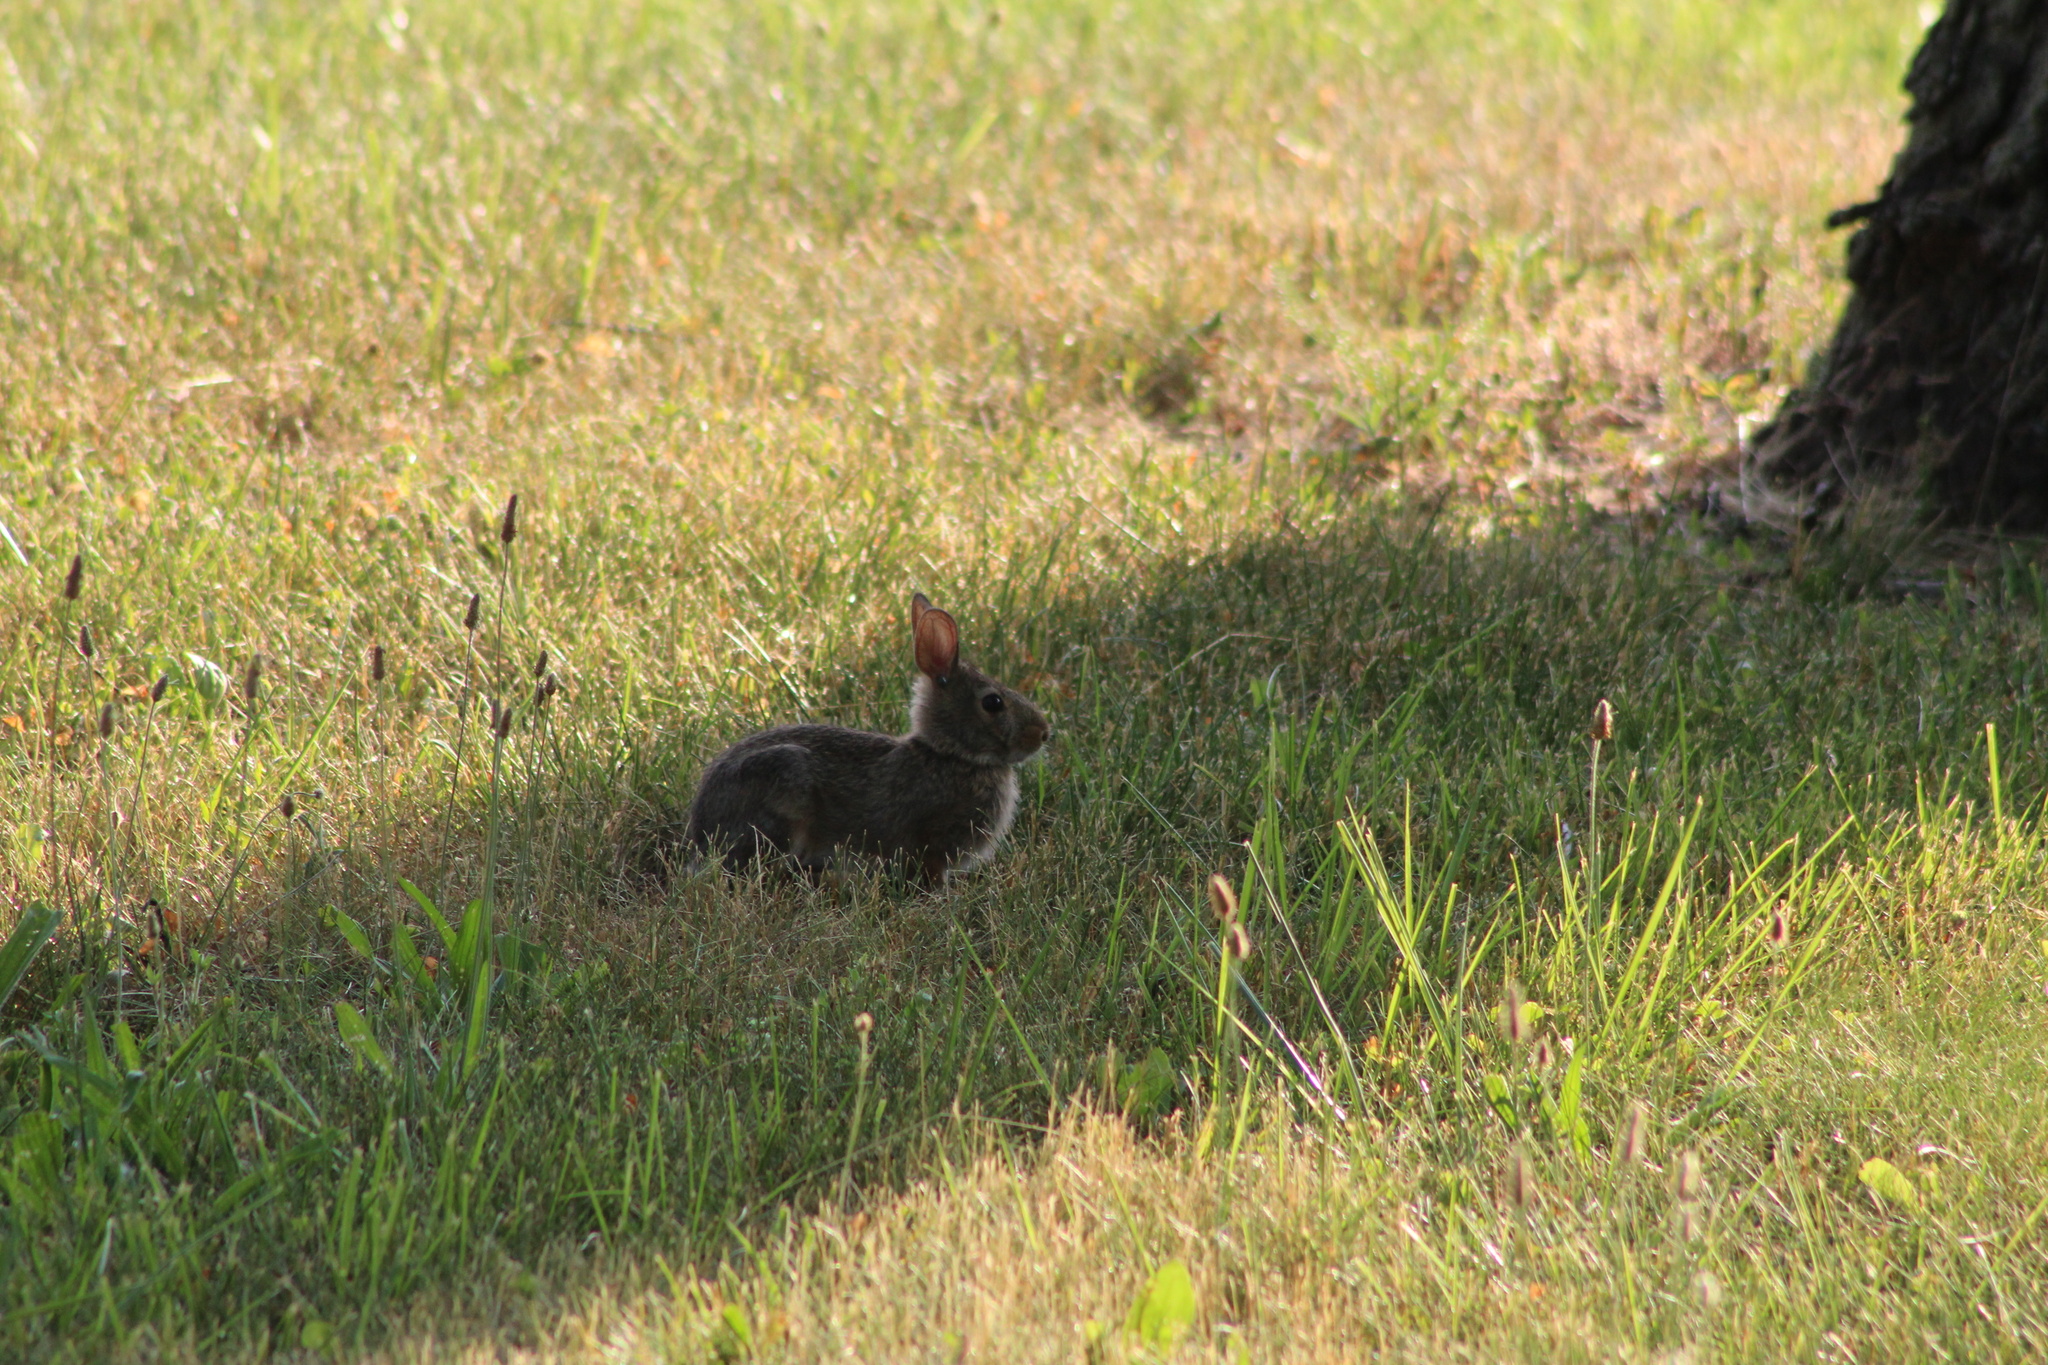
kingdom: Animalia
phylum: Chordata
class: Mammalia
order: Lagomorpha
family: Leporidae
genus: Sylvilagus
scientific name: Sylvilagus floridanus
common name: Eastern cottontail
